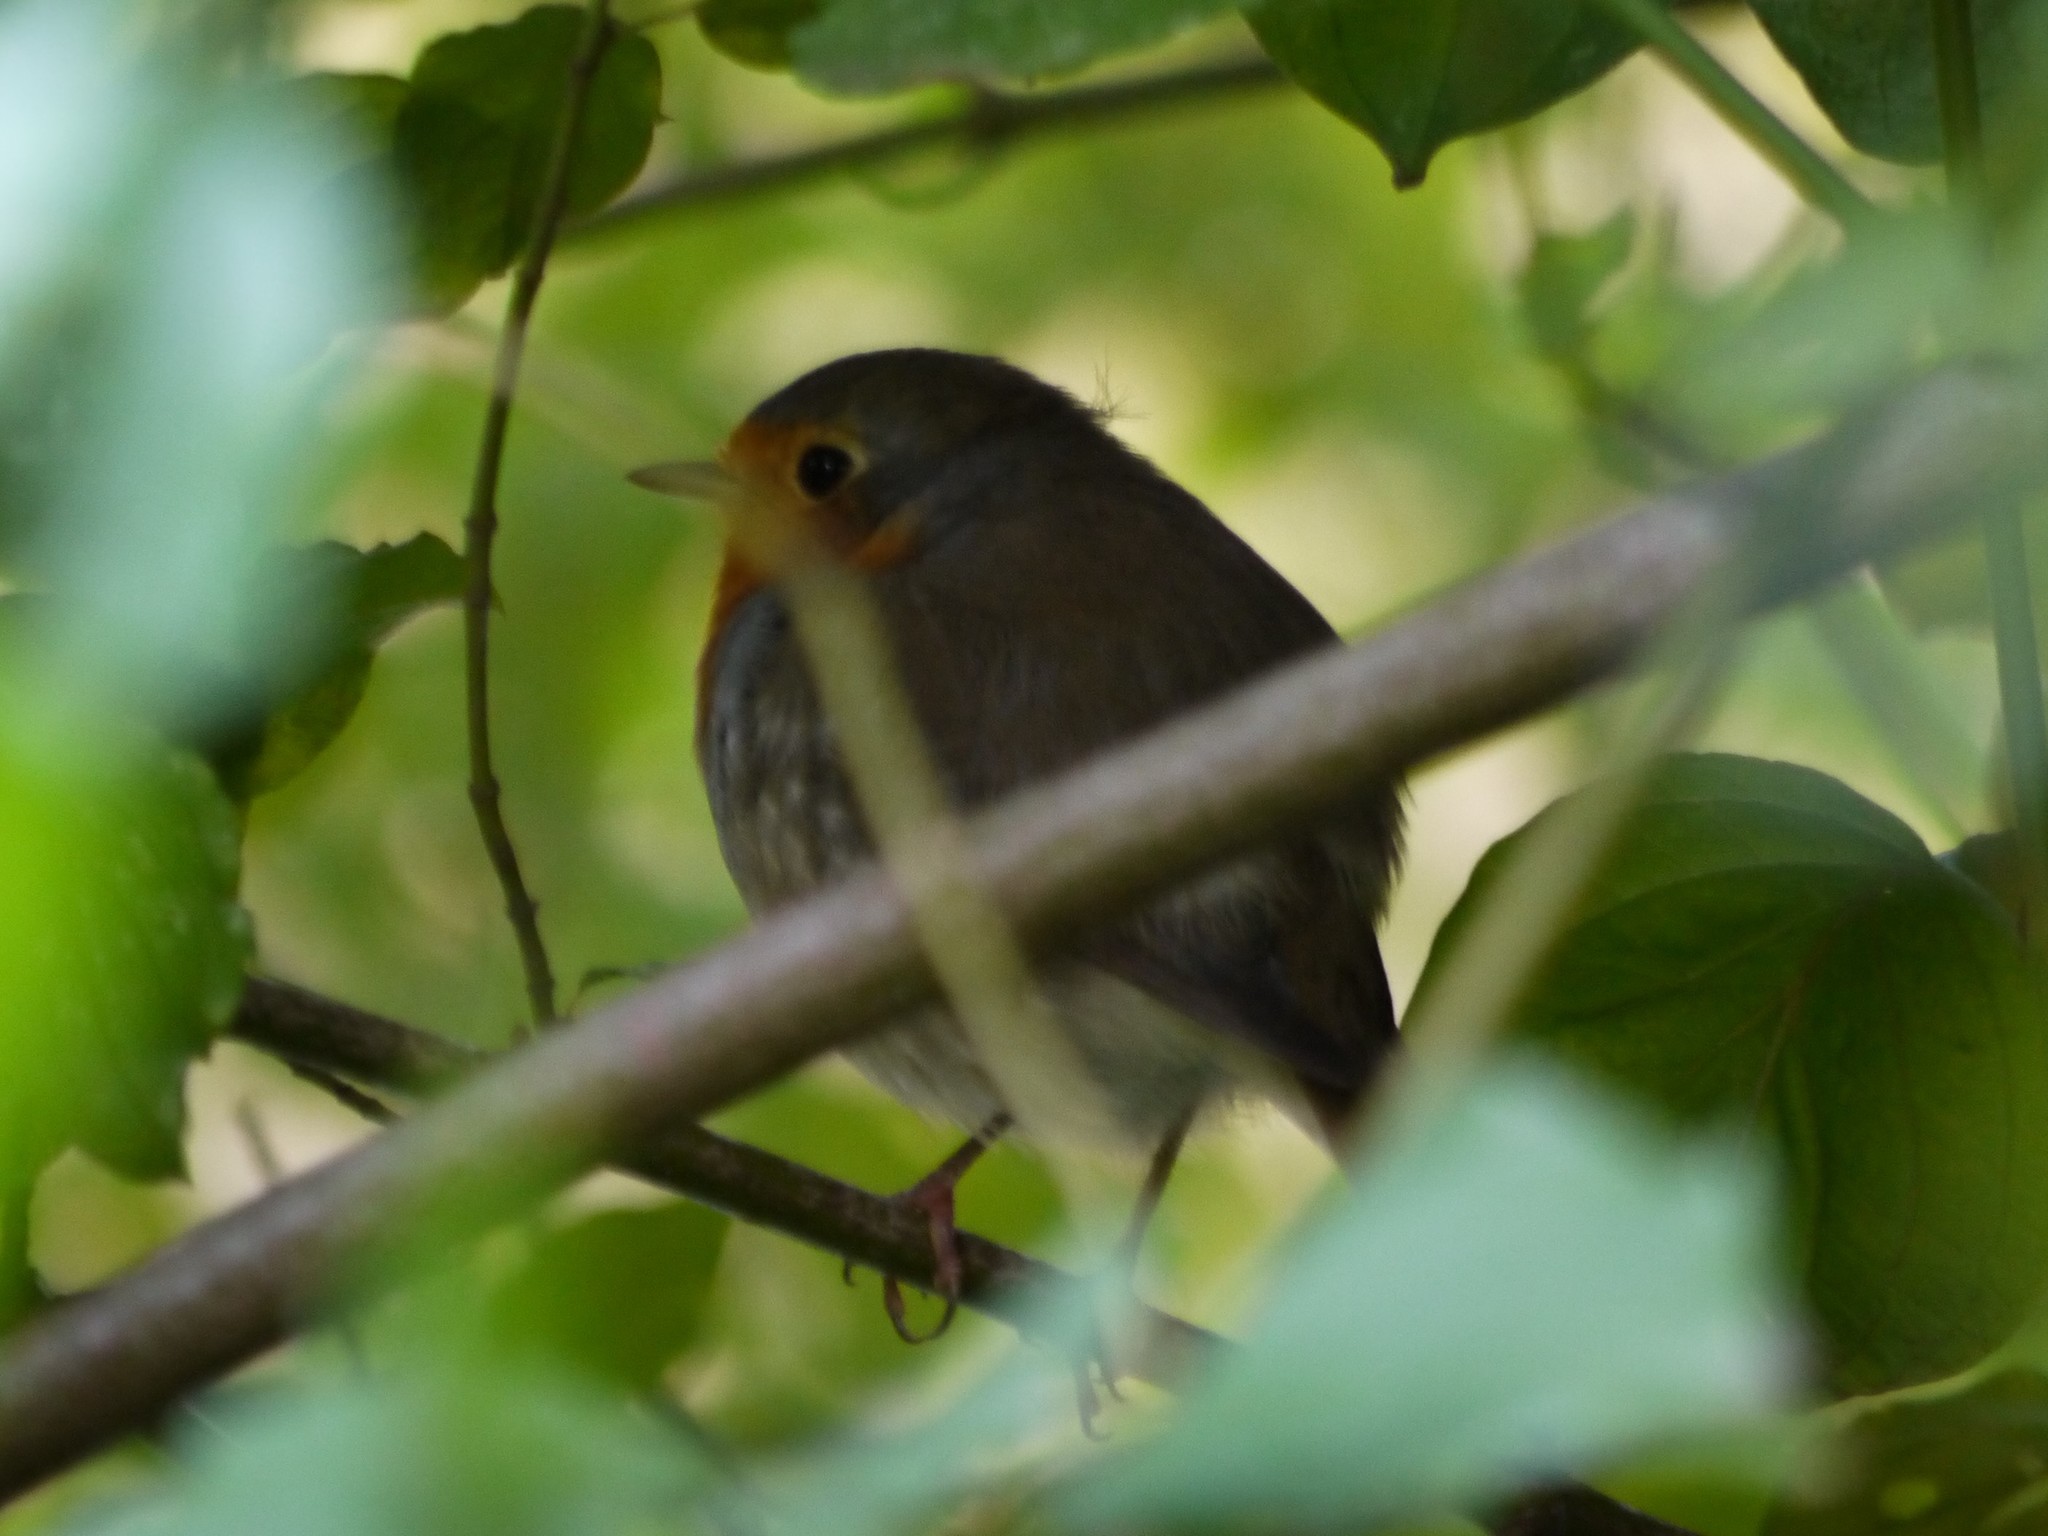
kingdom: Animalia
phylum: Chordata
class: Aves
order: Passeriformes
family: Muscicapidae
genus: Erithacus
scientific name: Erithacus rubecula
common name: European robin
